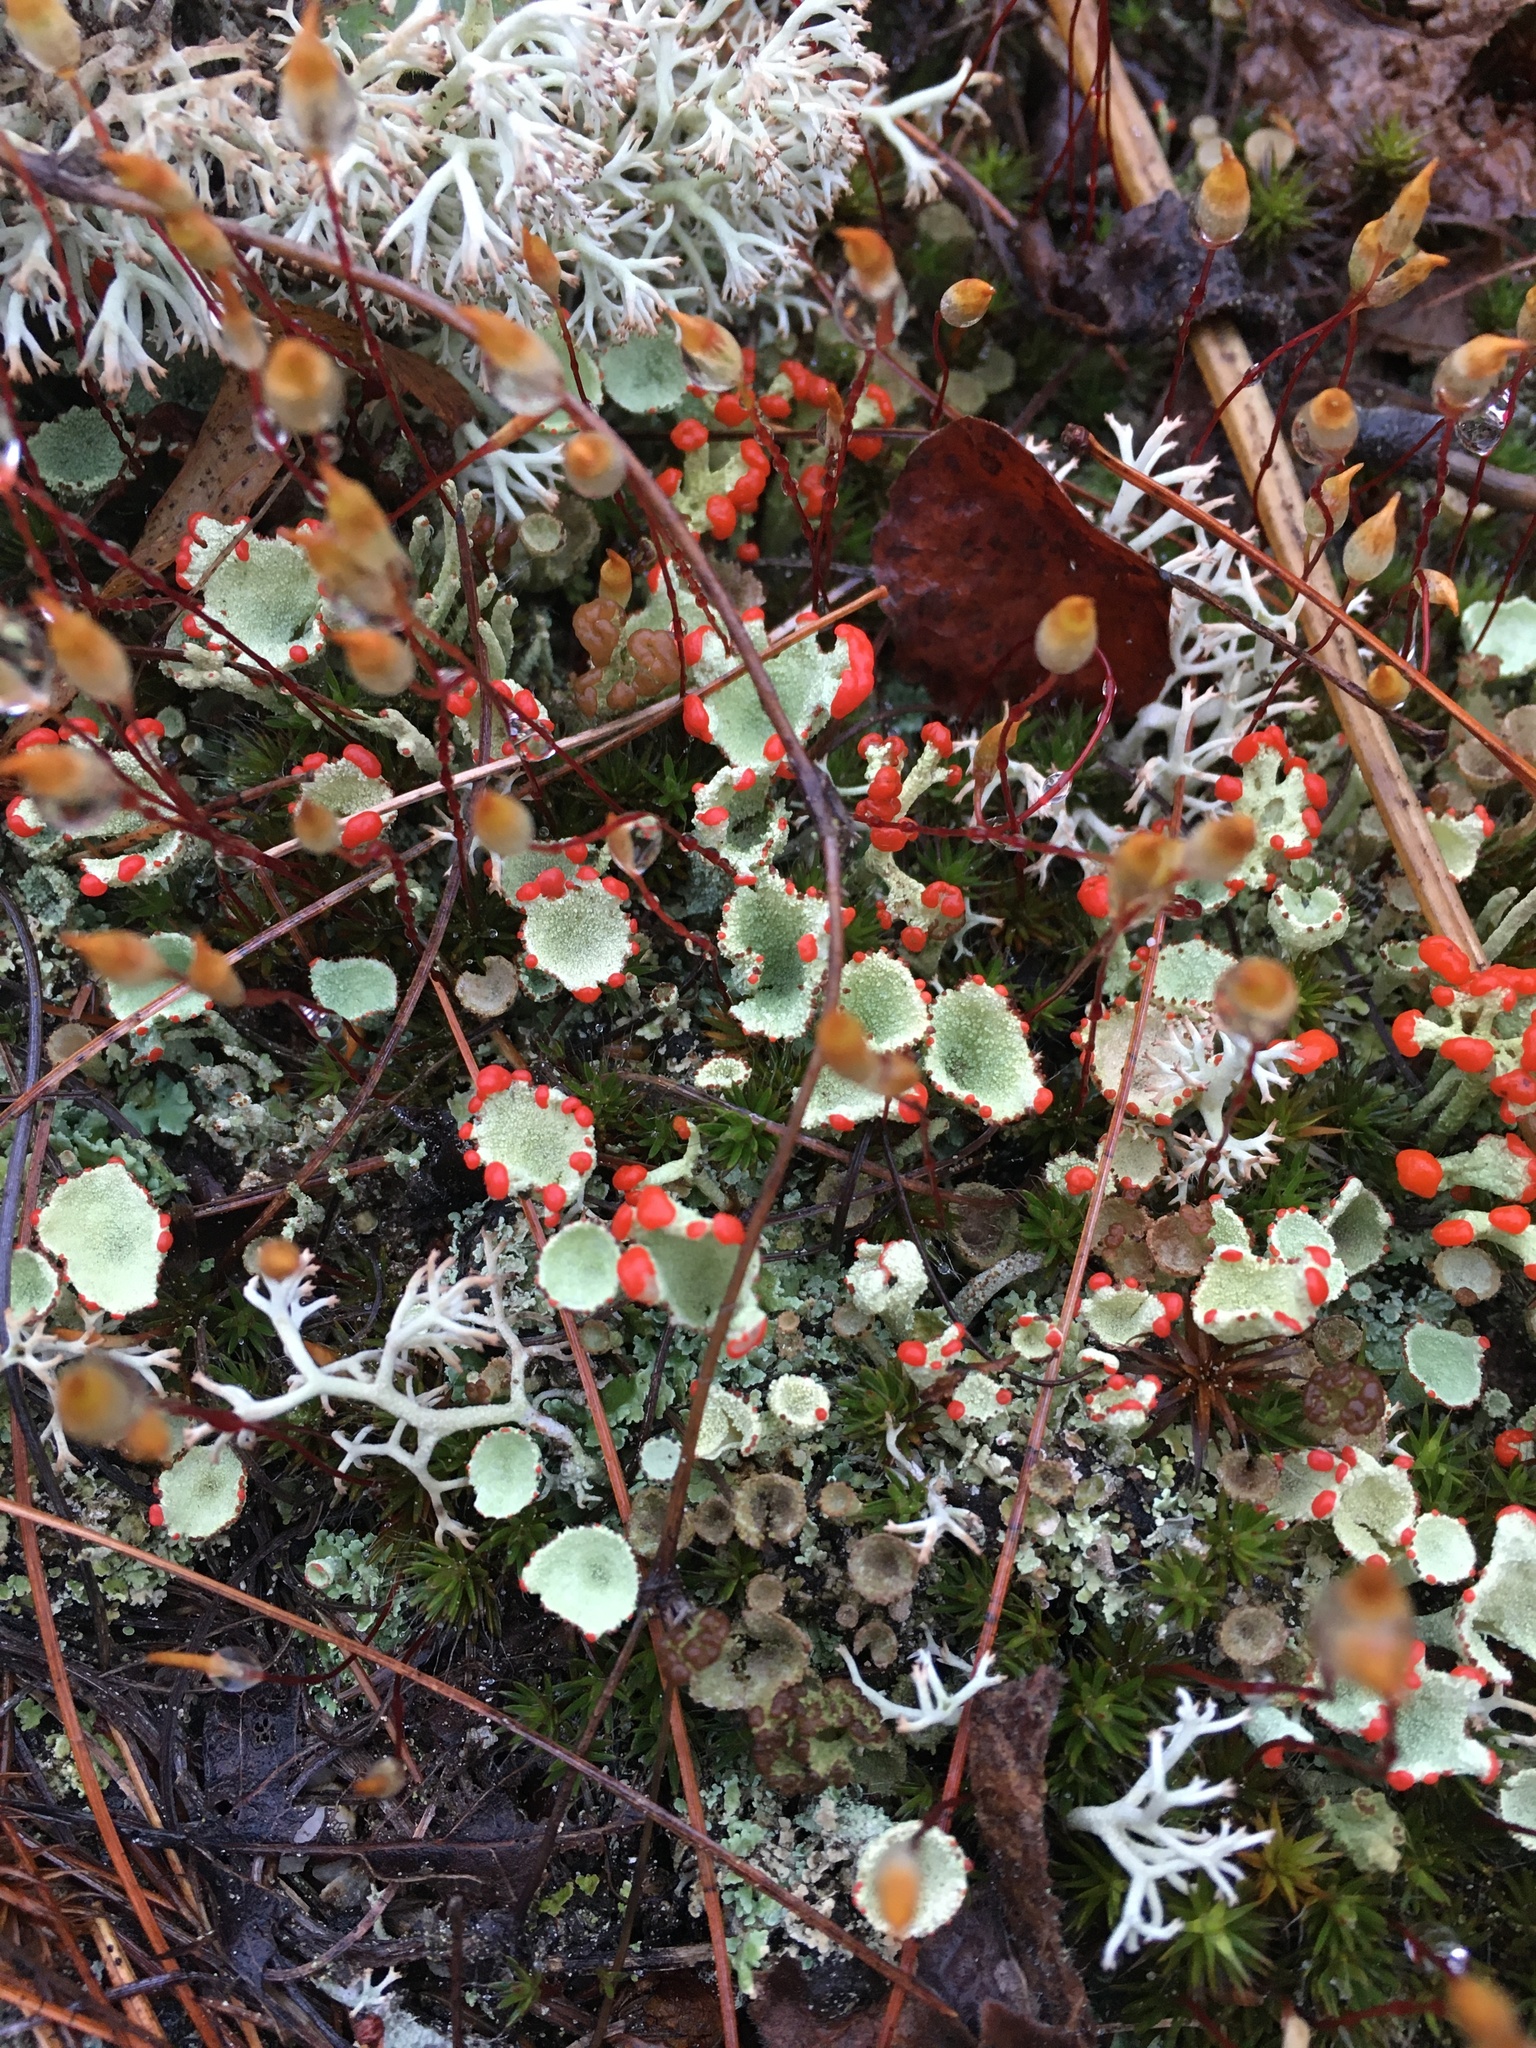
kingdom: Fungi
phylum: Ascomycota
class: Lecanoromycetes
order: Lecanorales
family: Cladoniaceae
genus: Cladonia
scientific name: Cladonia pleurota
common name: Red-fruited pixie cup
